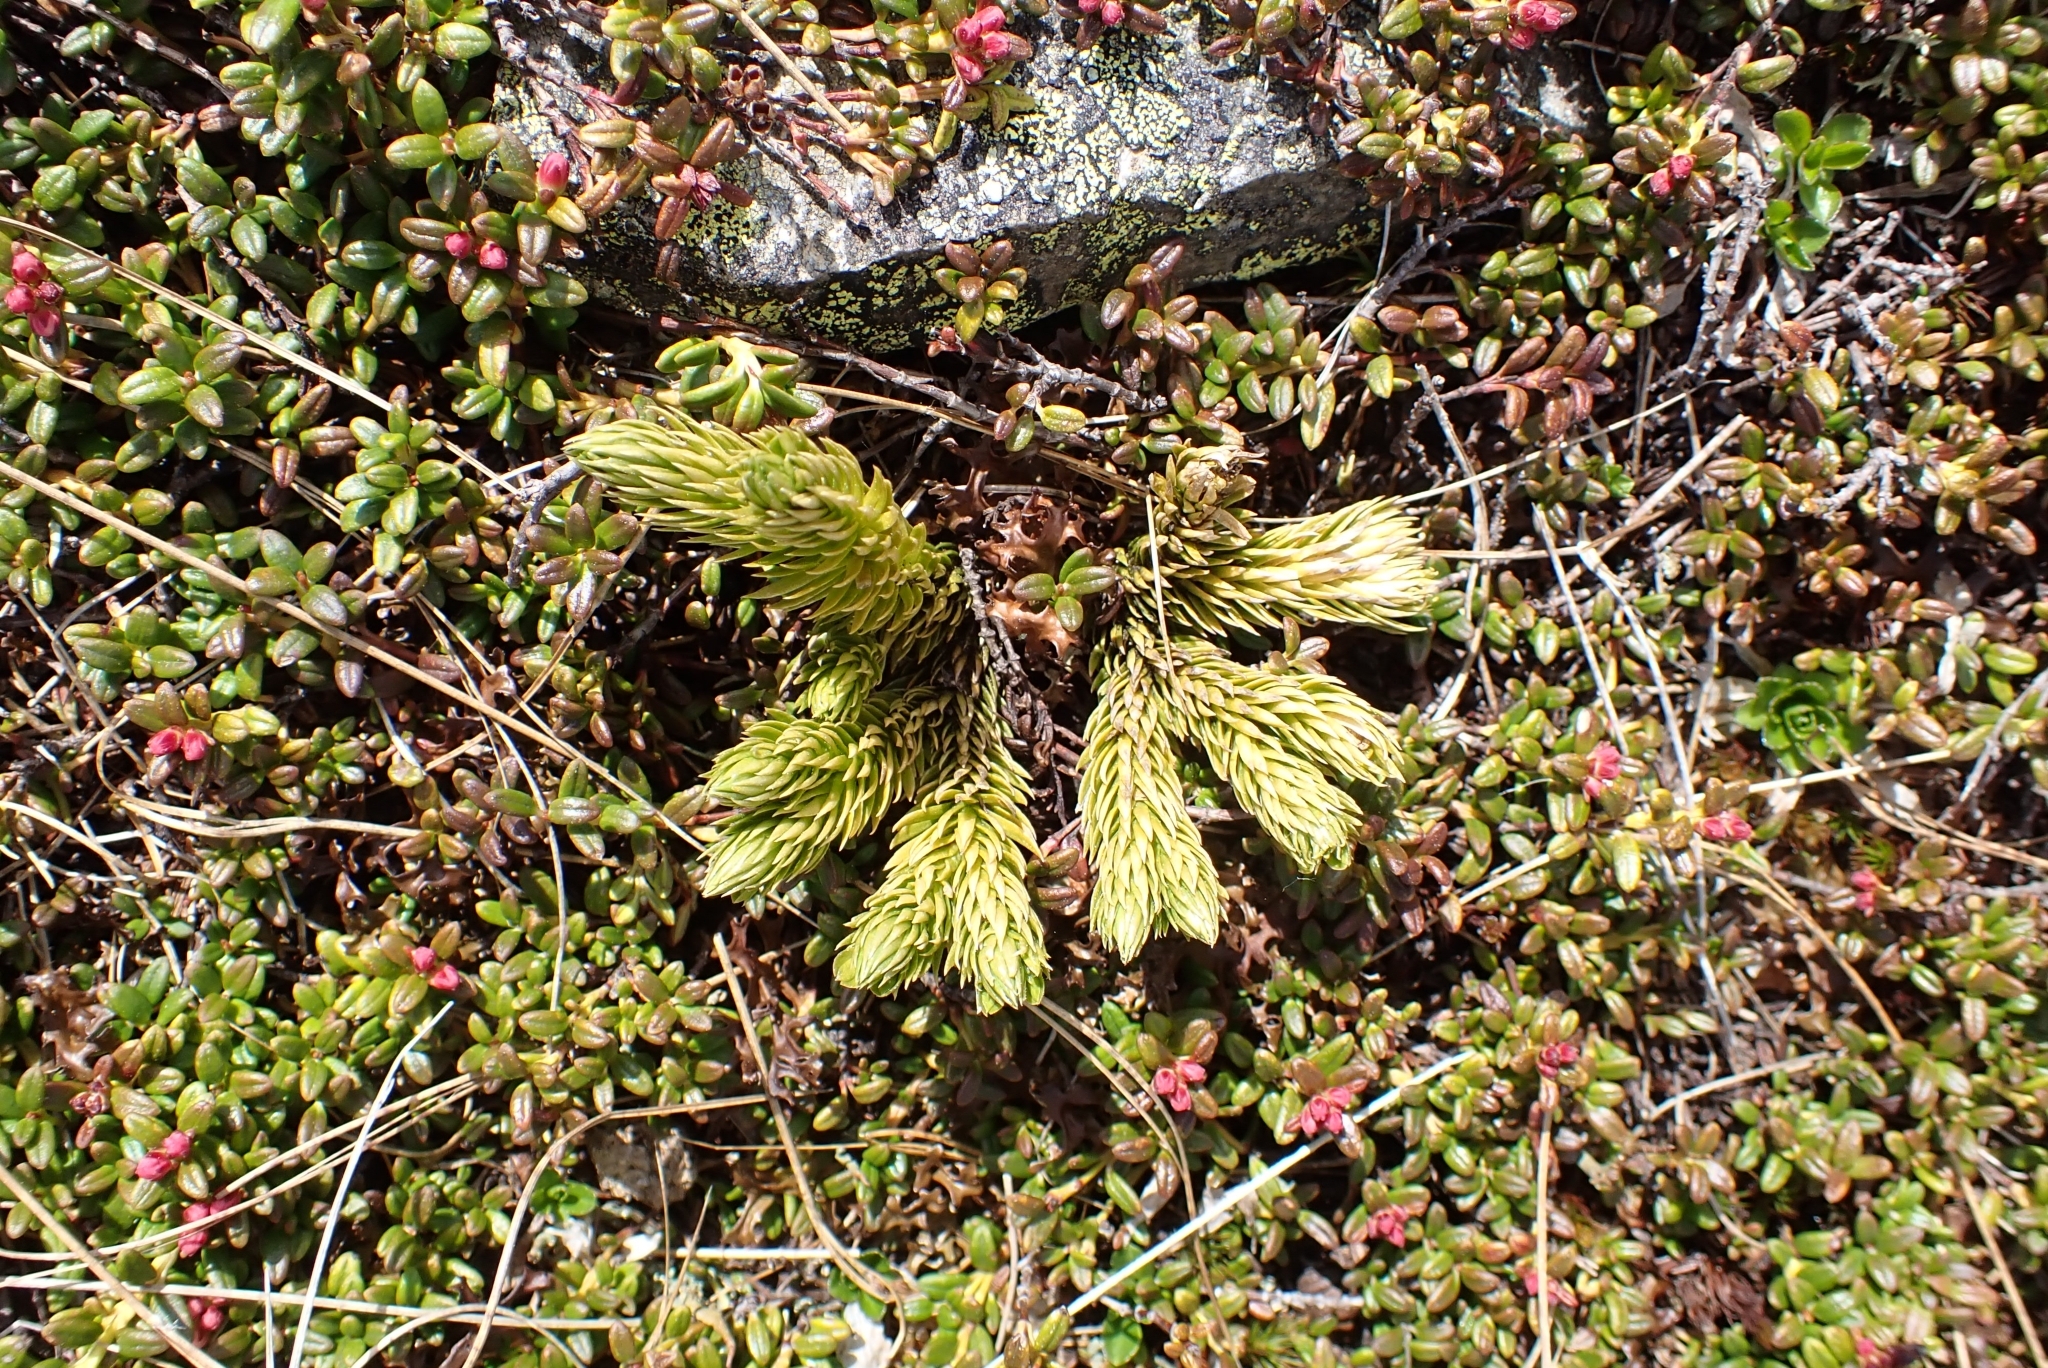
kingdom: Plantae
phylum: Tracheophyta
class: Lycopodiopsida
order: Lycopodiales
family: Lycopodiaceae
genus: Huperzia
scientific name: Huperzia selago
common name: Northern firmoss
